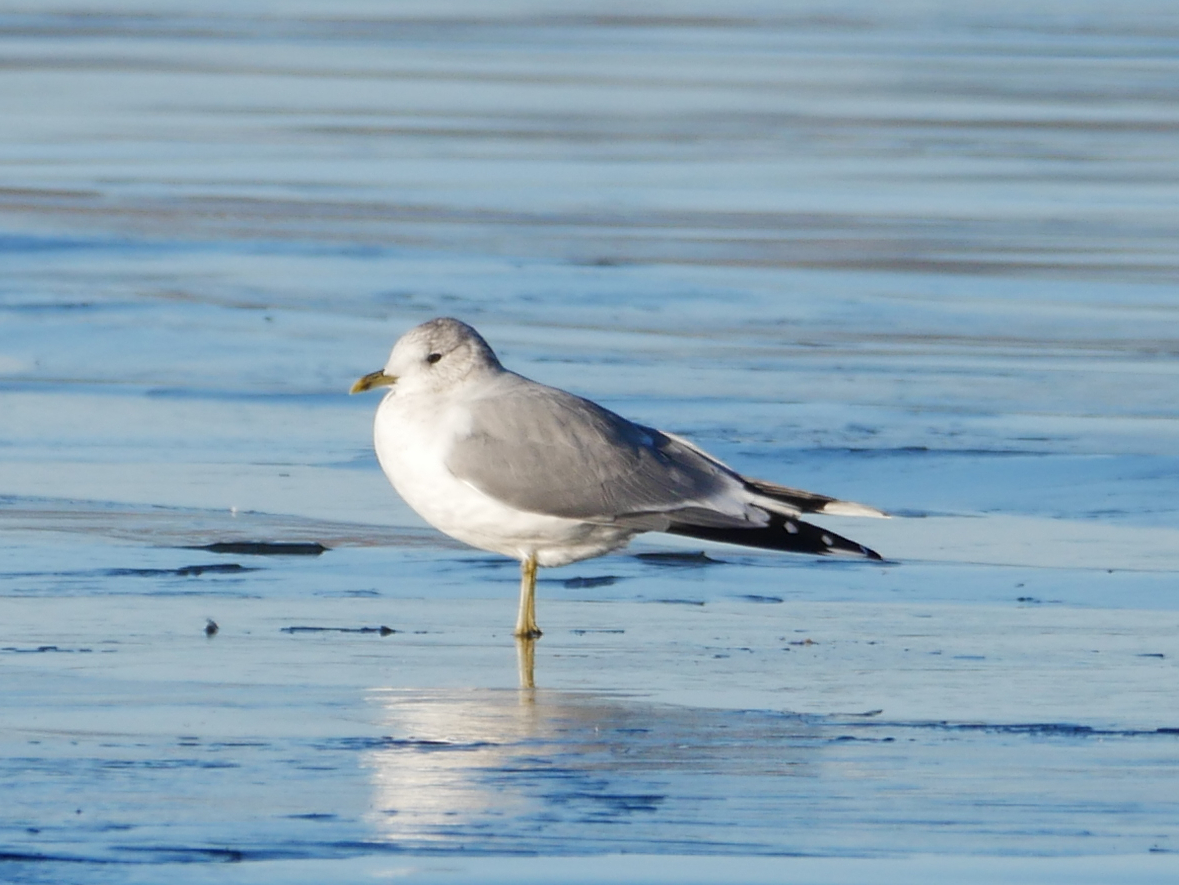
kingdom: Animalia
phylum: Chordata
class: Aves
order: Charadriiformes
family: Laridae
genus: Larus
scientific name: Larus canus
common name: Mew gull
